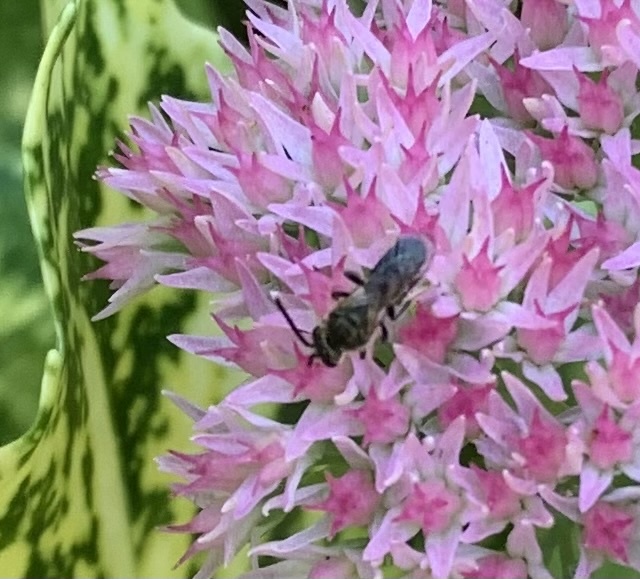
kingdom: Animalia
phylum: Arthropoda
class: Insecta
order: Hymenoptera
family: Halictidae
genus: Dialictus
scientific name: Dialictus
